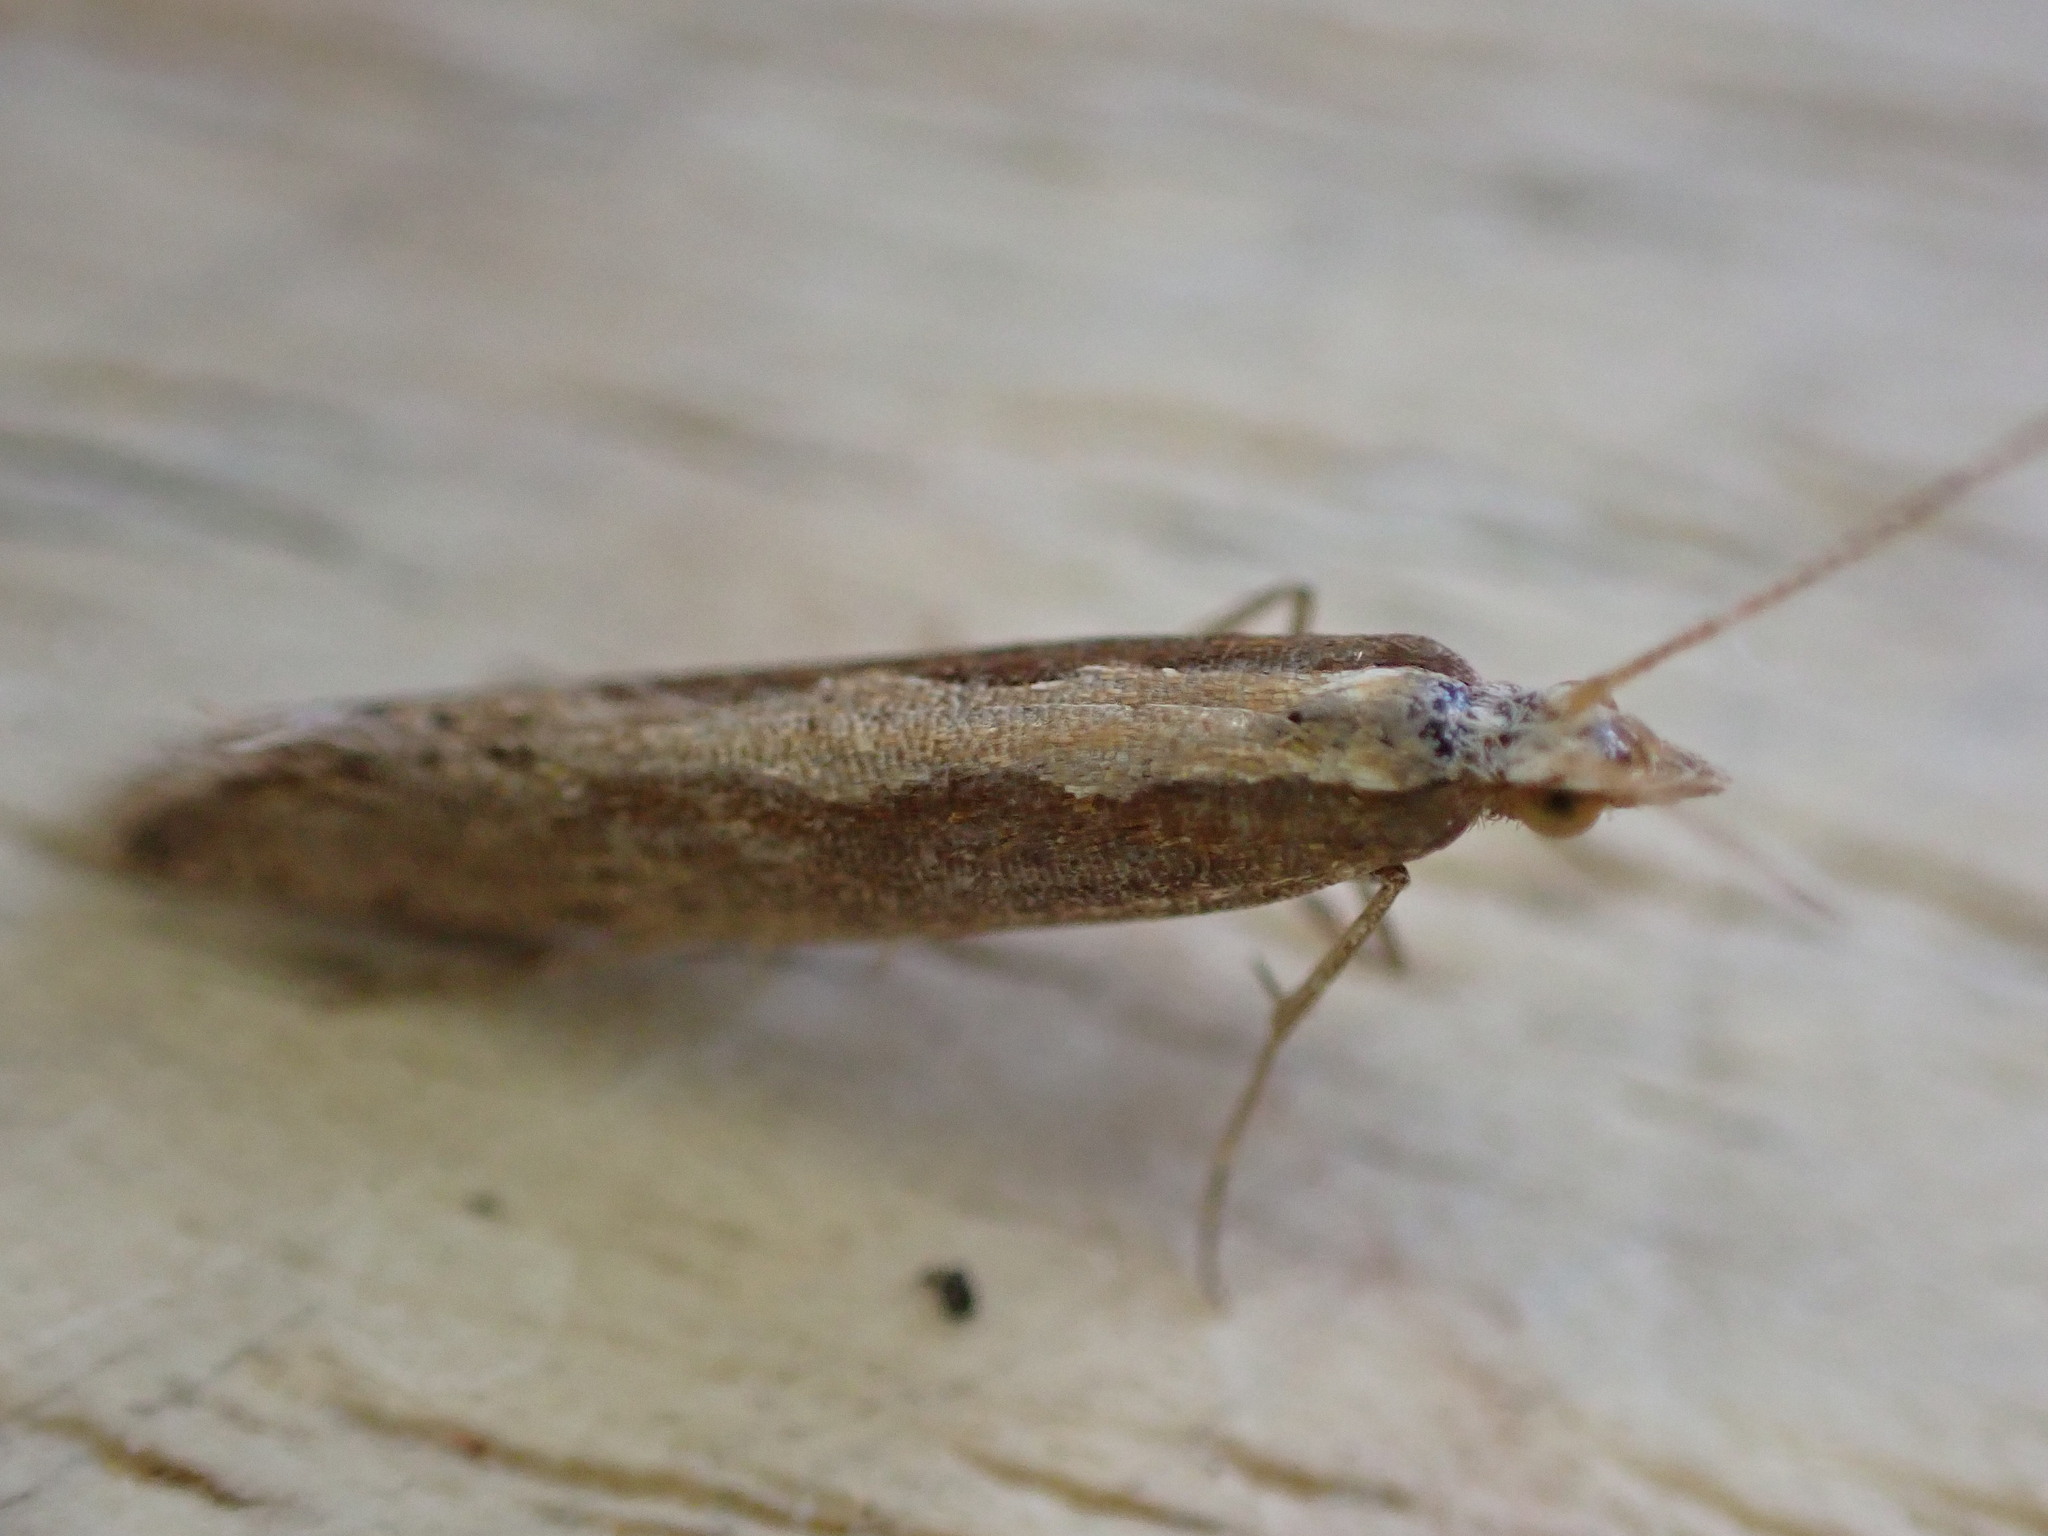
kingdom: Animalia
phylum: Arthropoda
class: Insecta
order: Lepidoptera
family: Plutellidae
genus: Plutella
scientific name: Plutella xylostella
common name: Diamond-back moth
